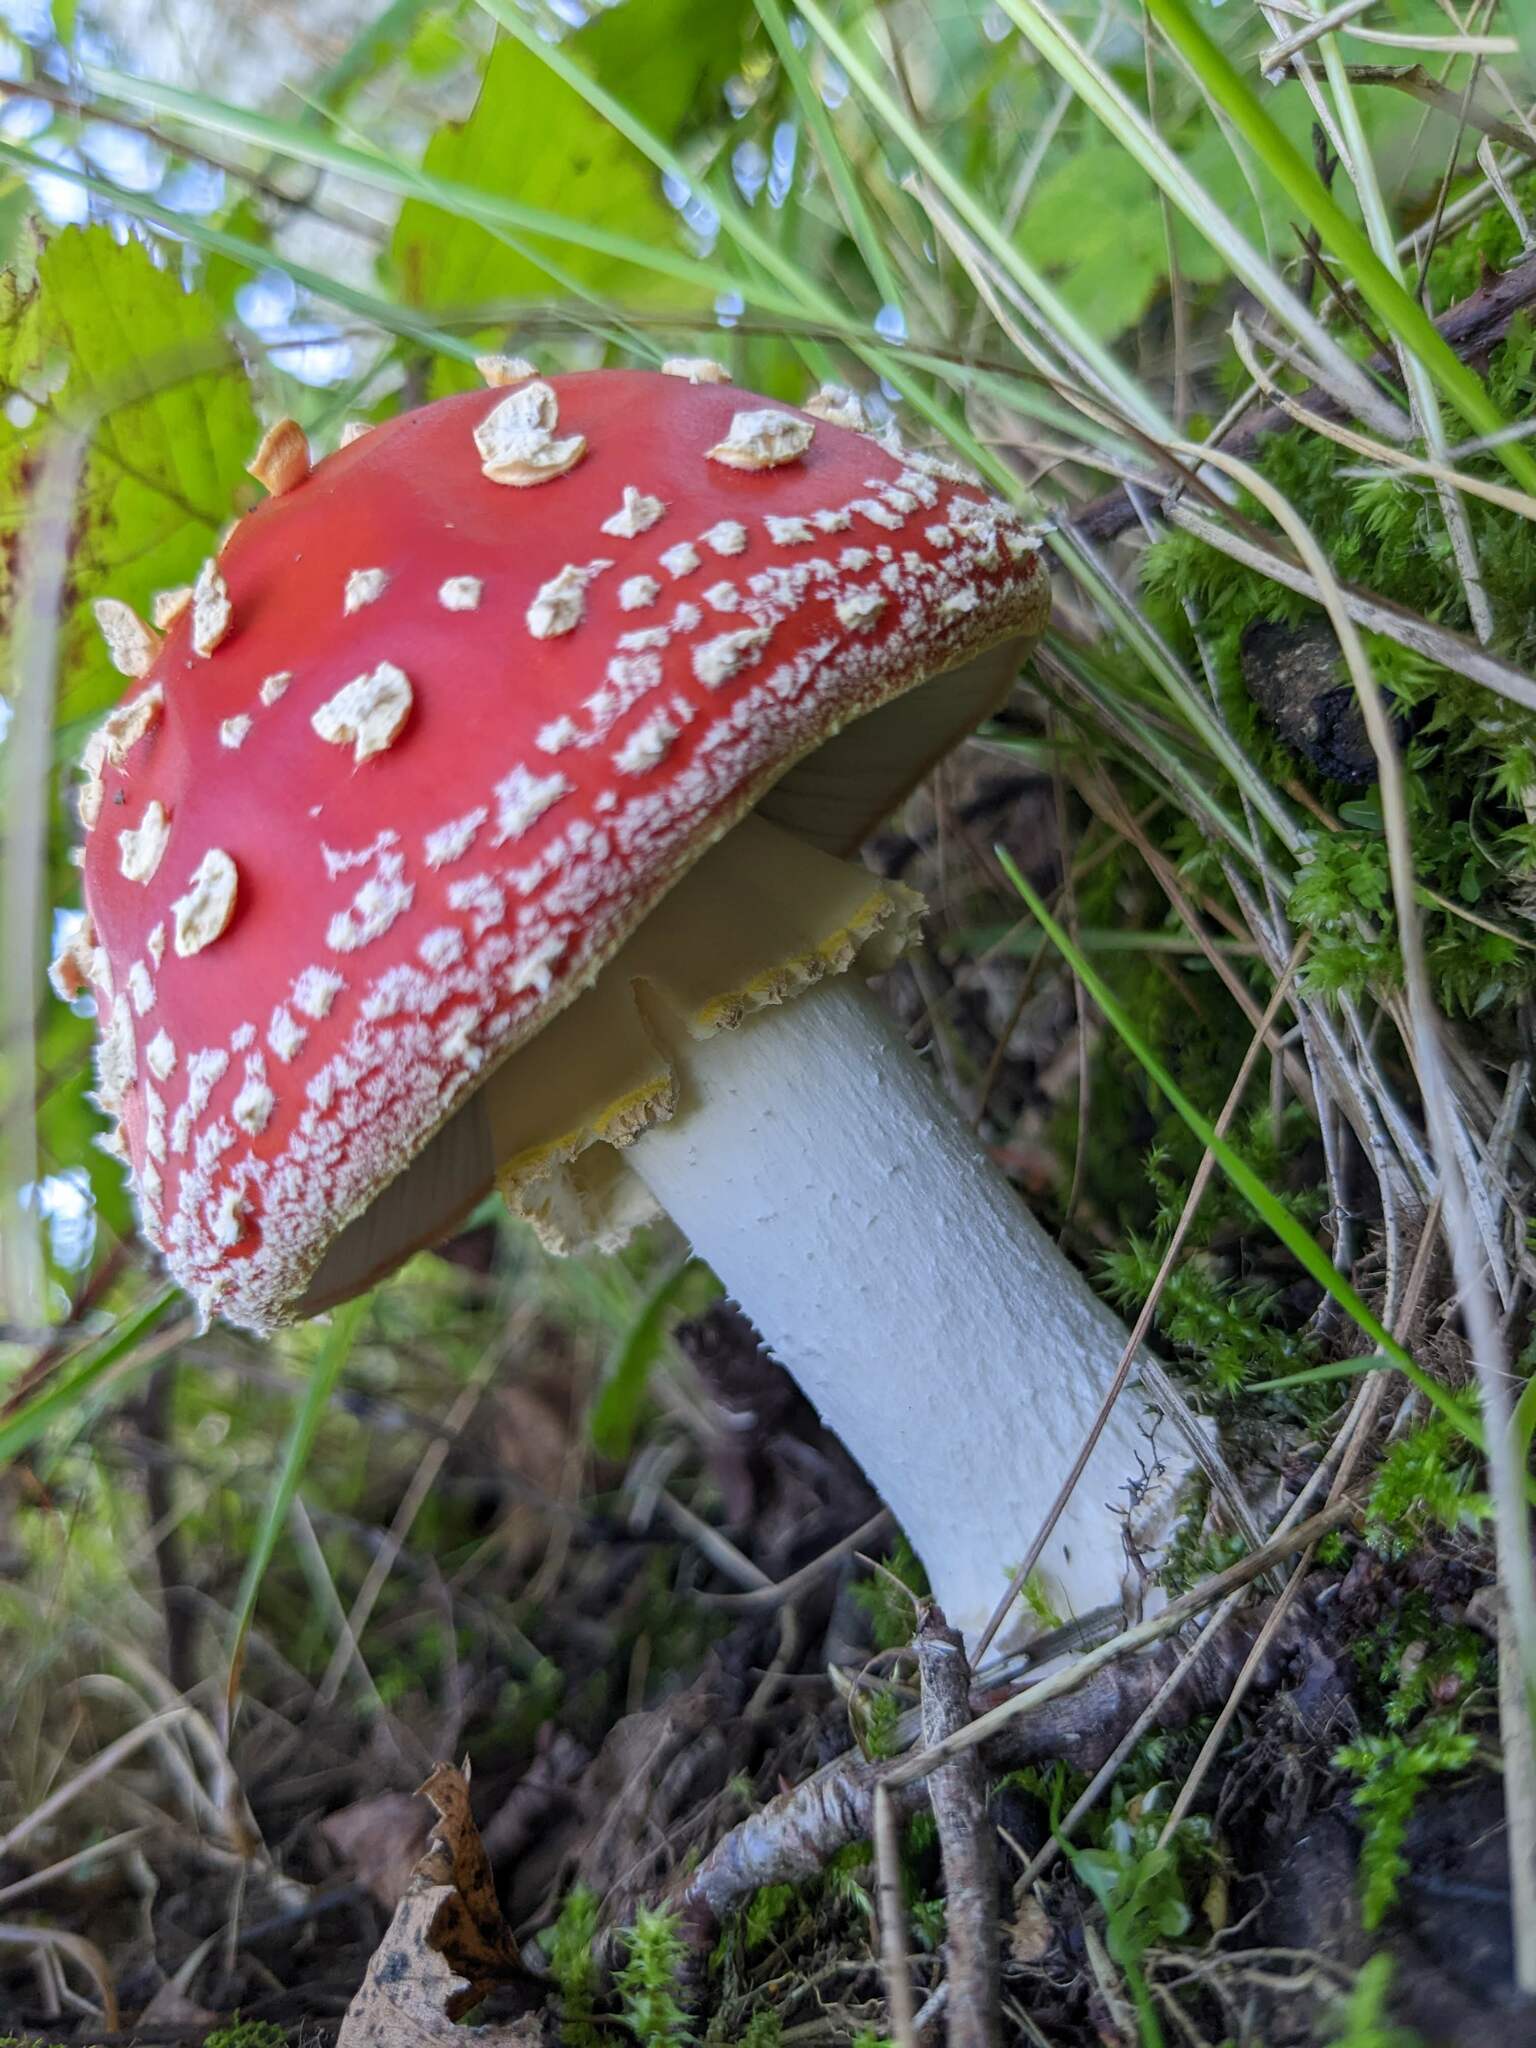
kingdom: Fungi
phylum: Basidiomycota
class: Agaricomycetes
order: Agaricales
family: Amanitaceae
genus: Amanita
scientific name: Amanita muscaria
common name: Fly agaric
